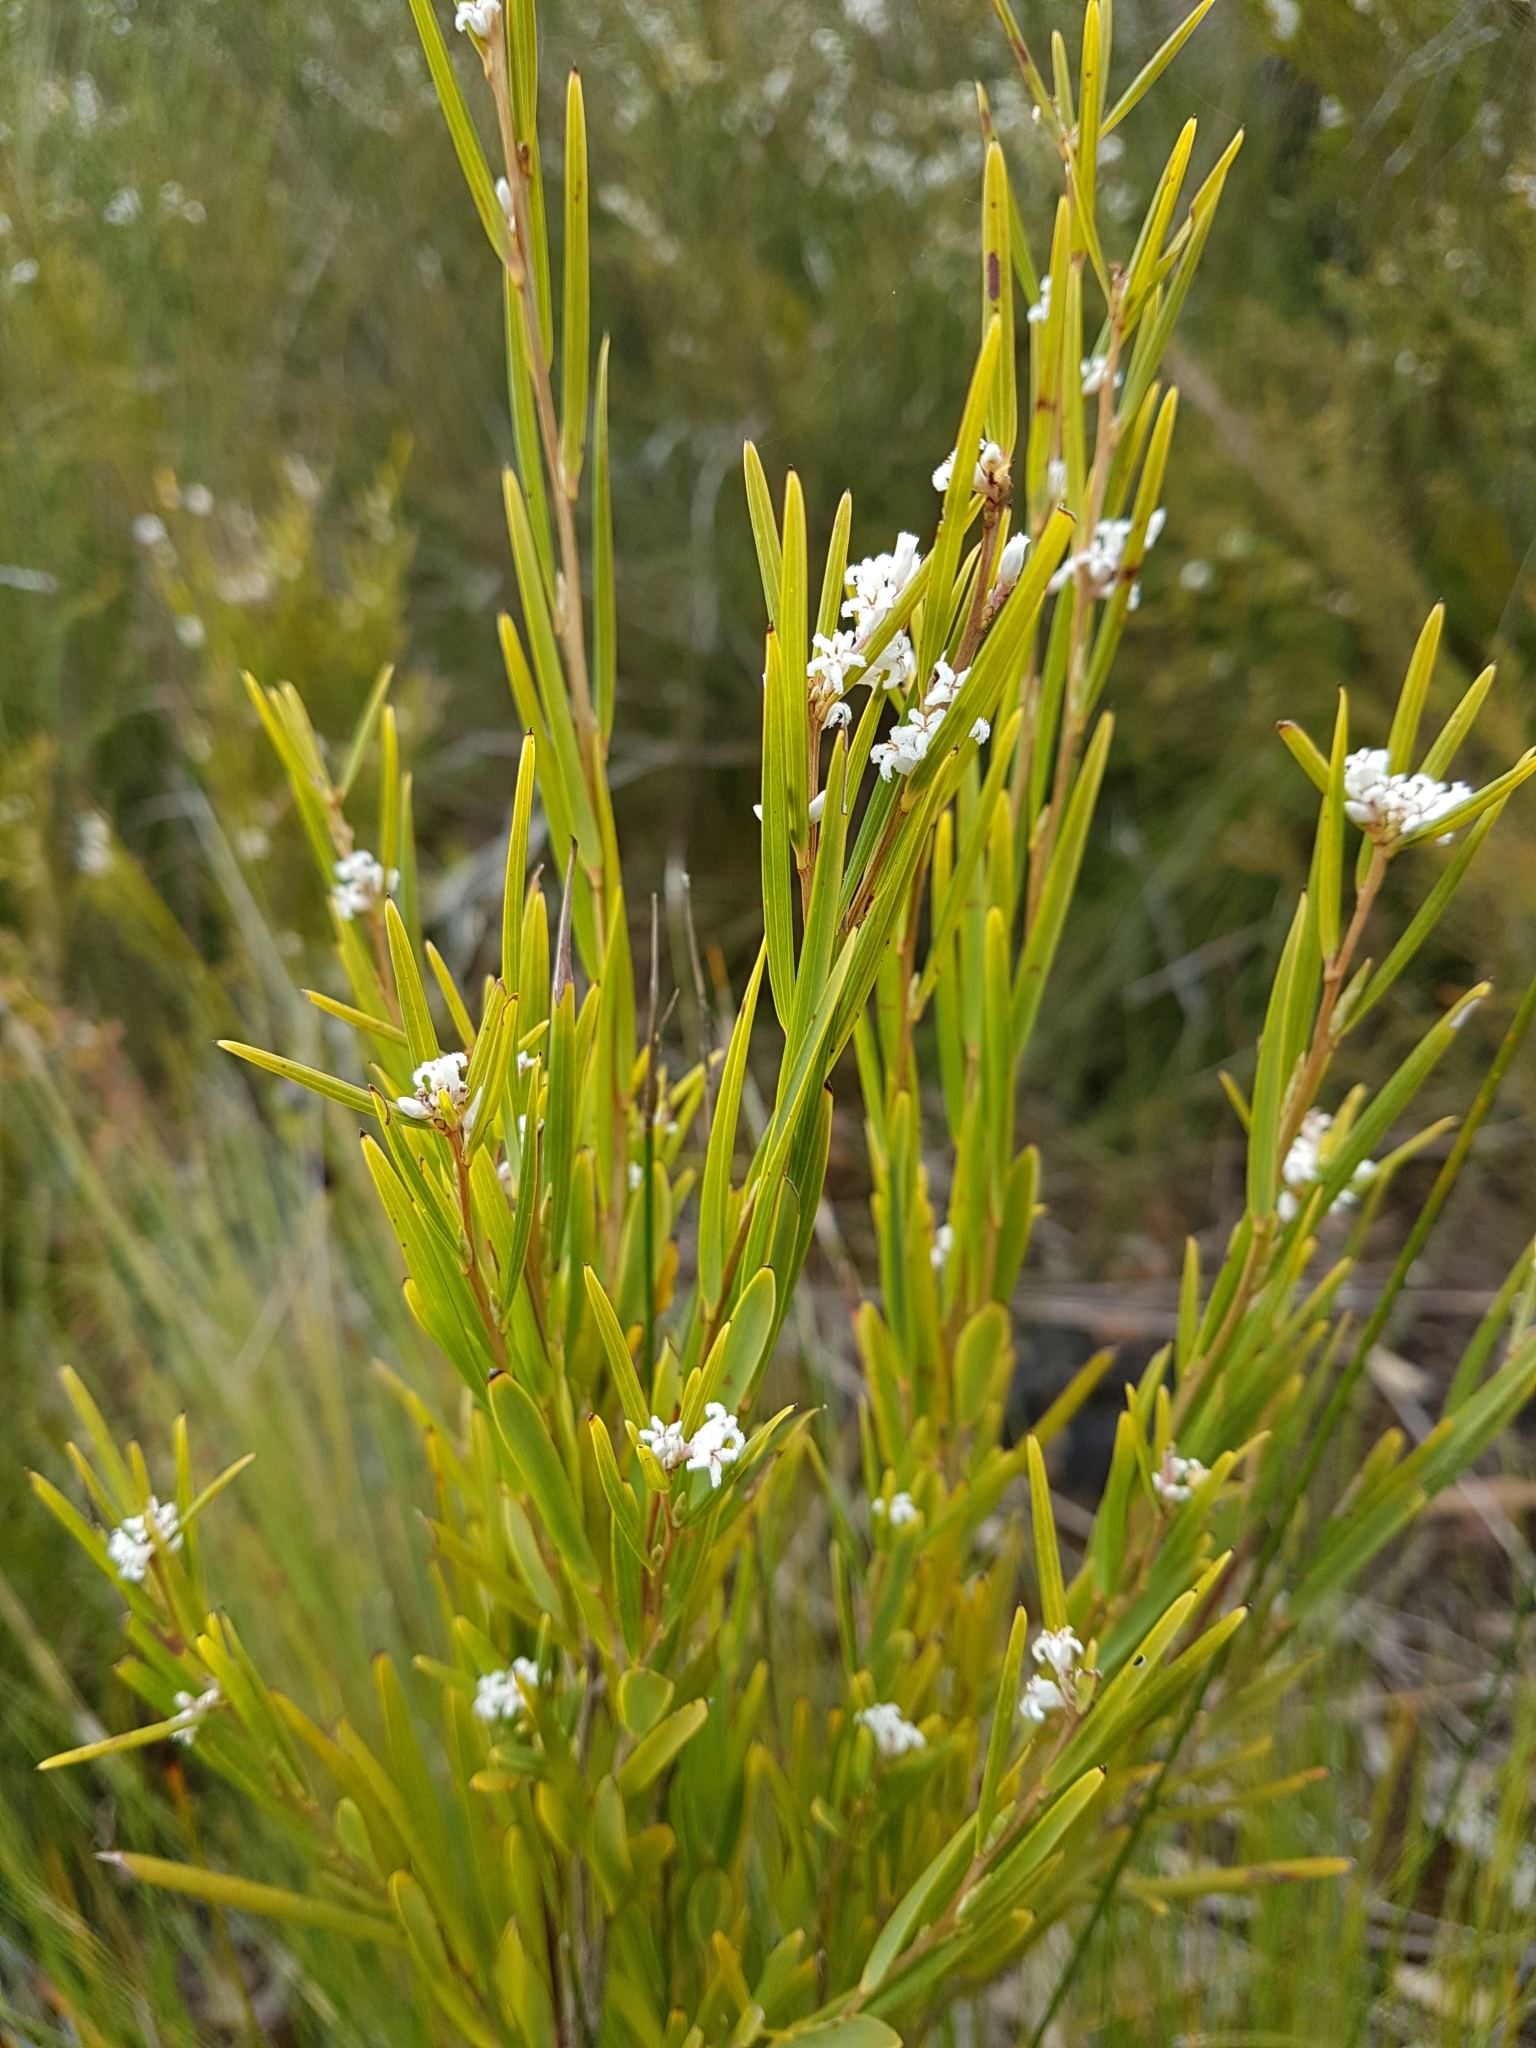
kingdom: Plantae
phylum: Tracheophyta
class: Magnoliopsida
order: Ericales
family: Ericaceae
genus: Leucopogon
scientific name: Leucopogon australis
